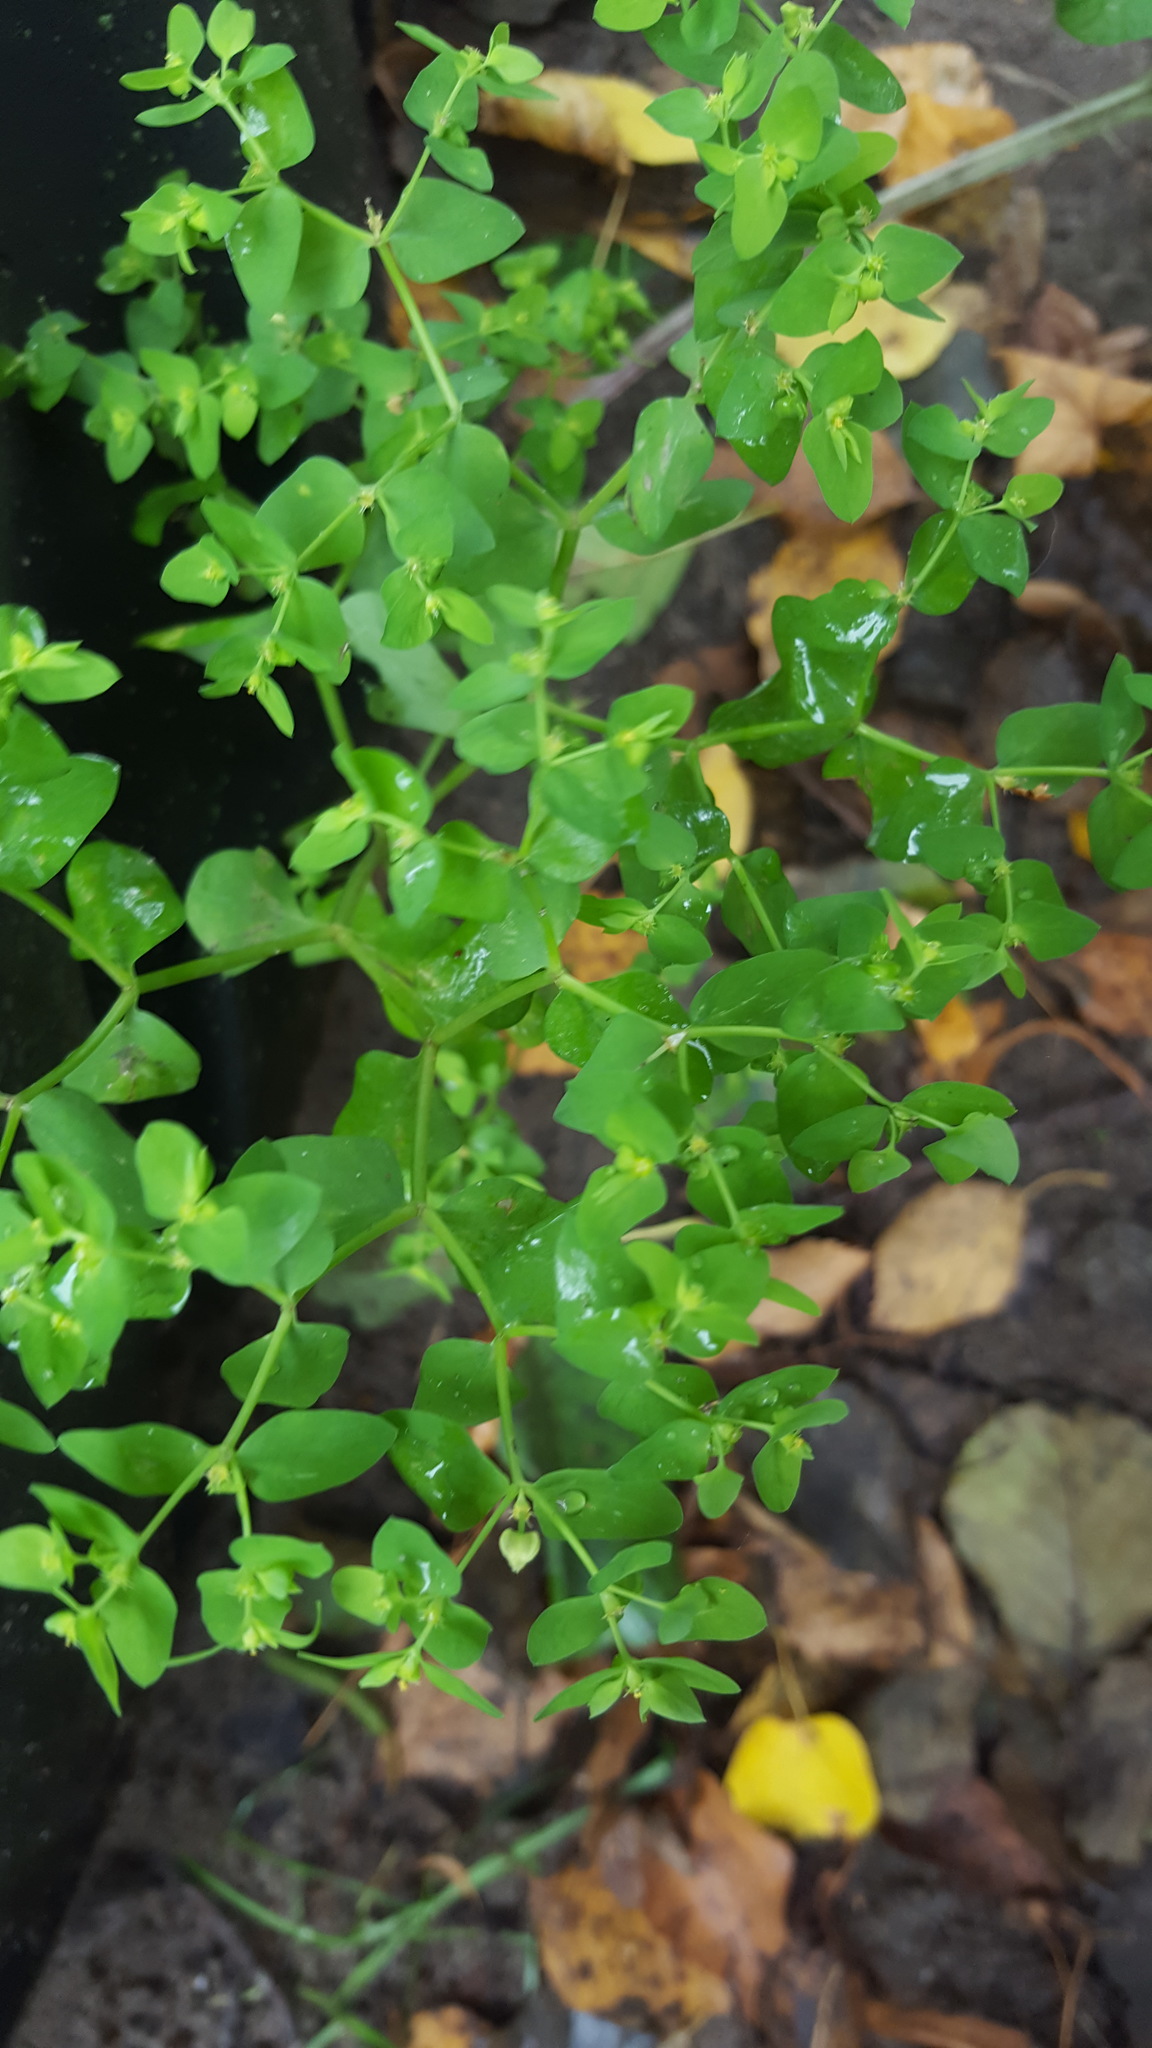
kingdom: Plantae
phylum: Tracheophyta
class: Magnoliopsida
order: Malpighiales
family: Euphorbiaceae
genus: Euphorbia
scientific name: Euphorbia peplus
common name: Petty spurge
